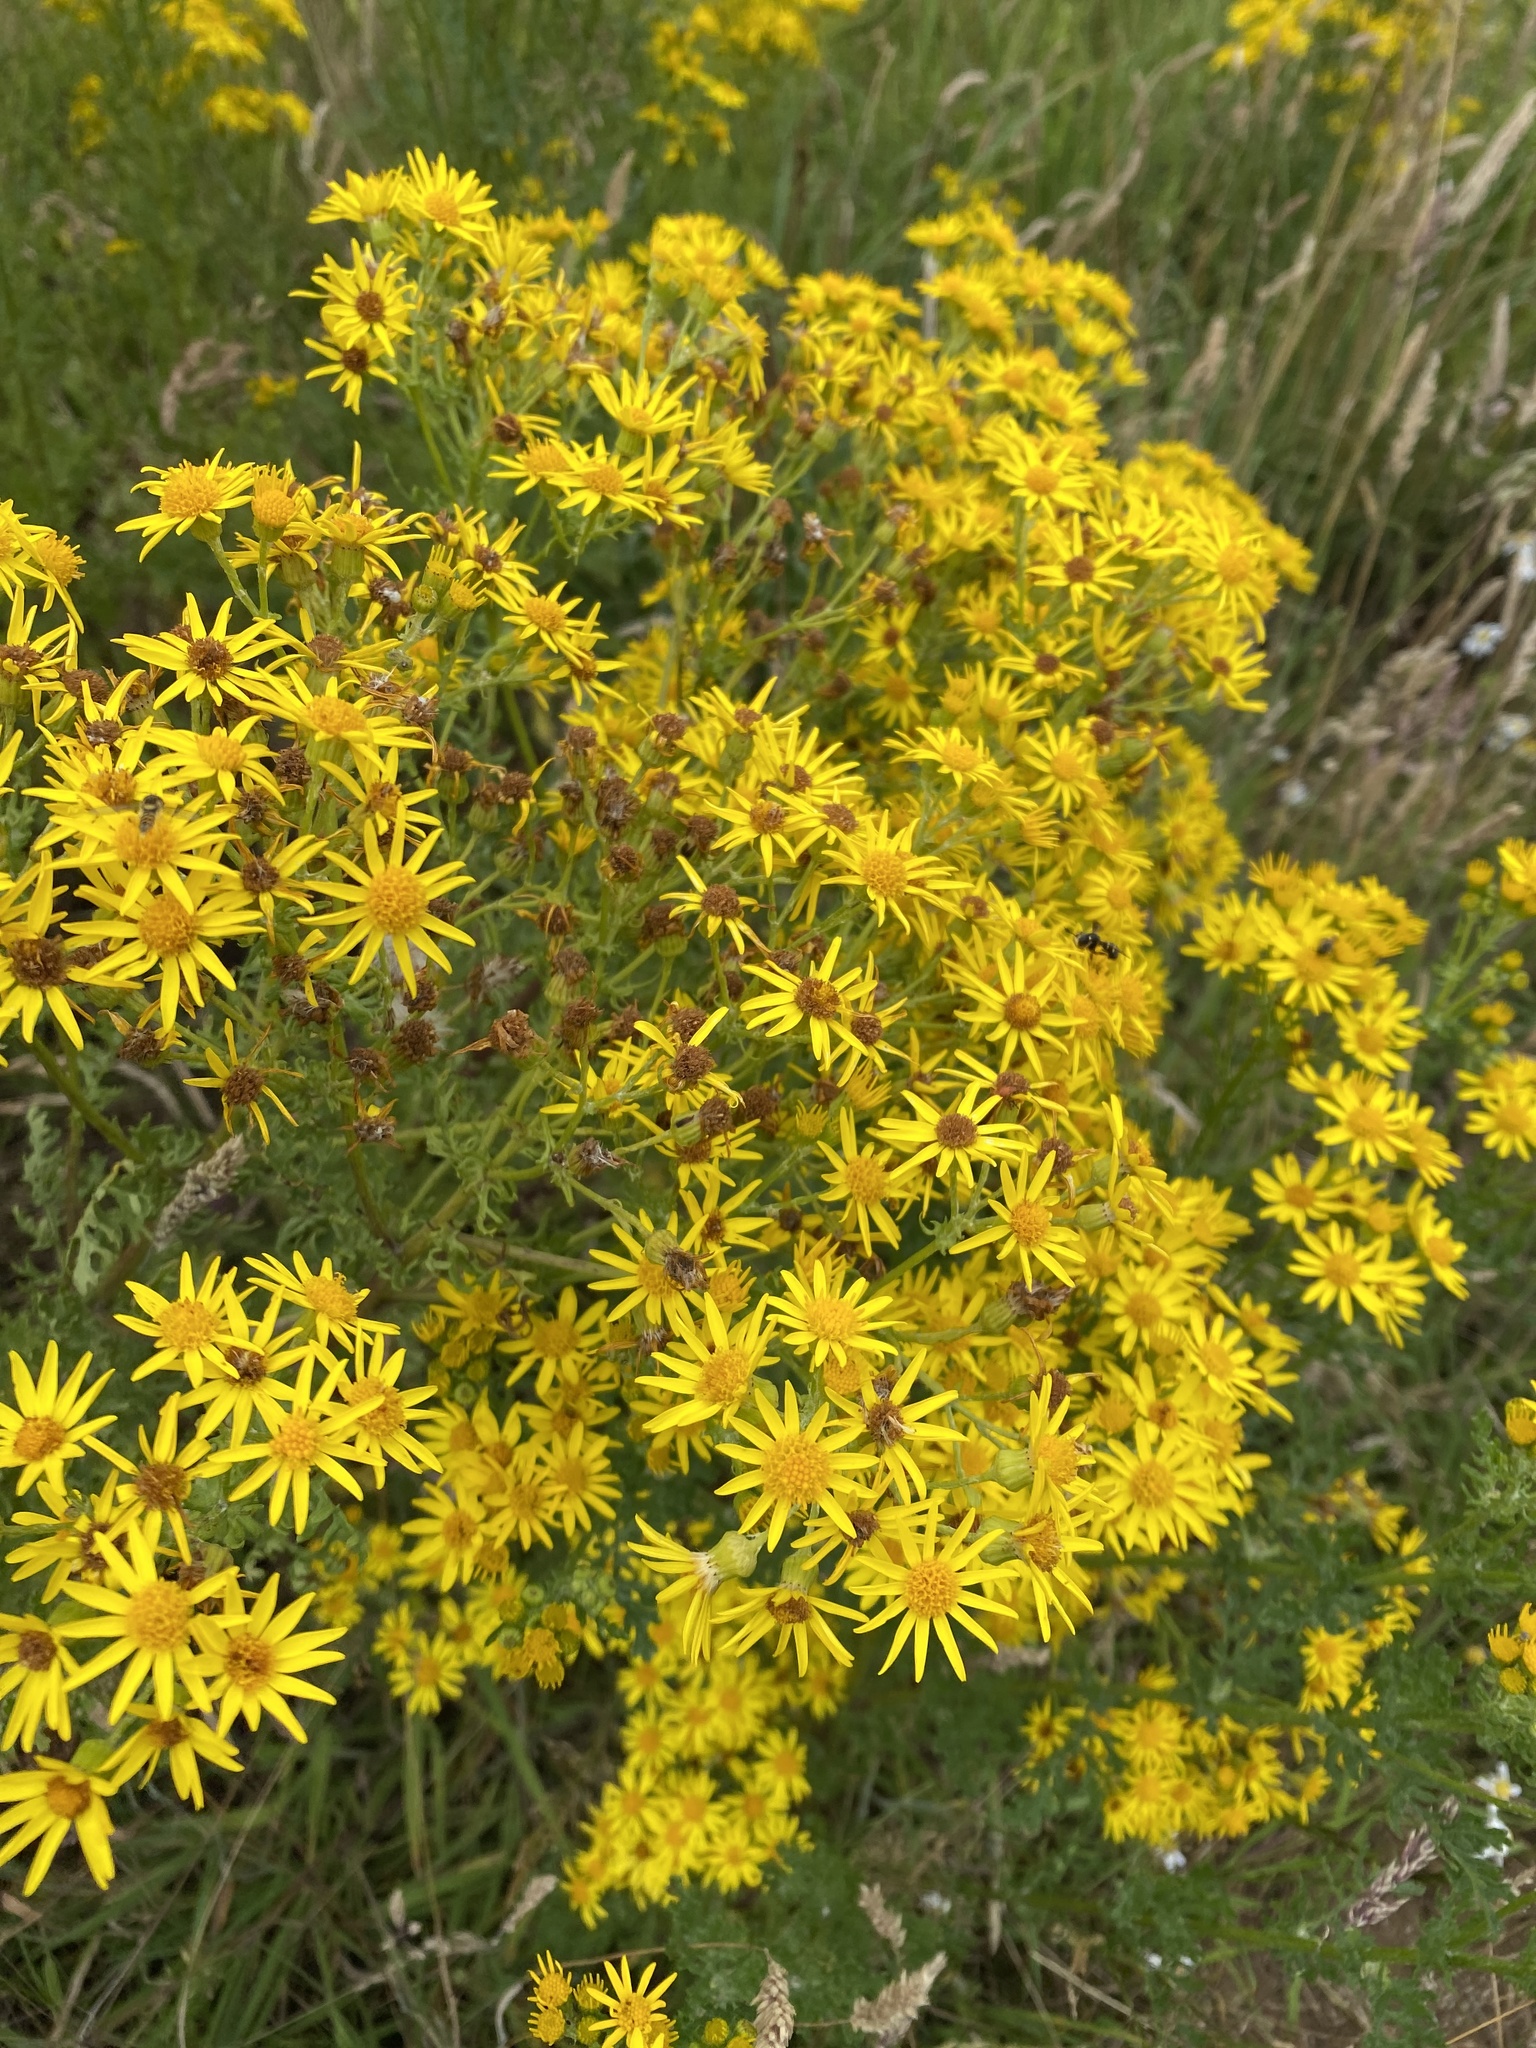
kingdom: Plantae
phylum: Tracheophyta
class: Magnoliopsida
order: Asterales
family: Asteraceae
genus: Jacobaea
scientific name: Jacobaea vulgaris
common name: Stinking willie
